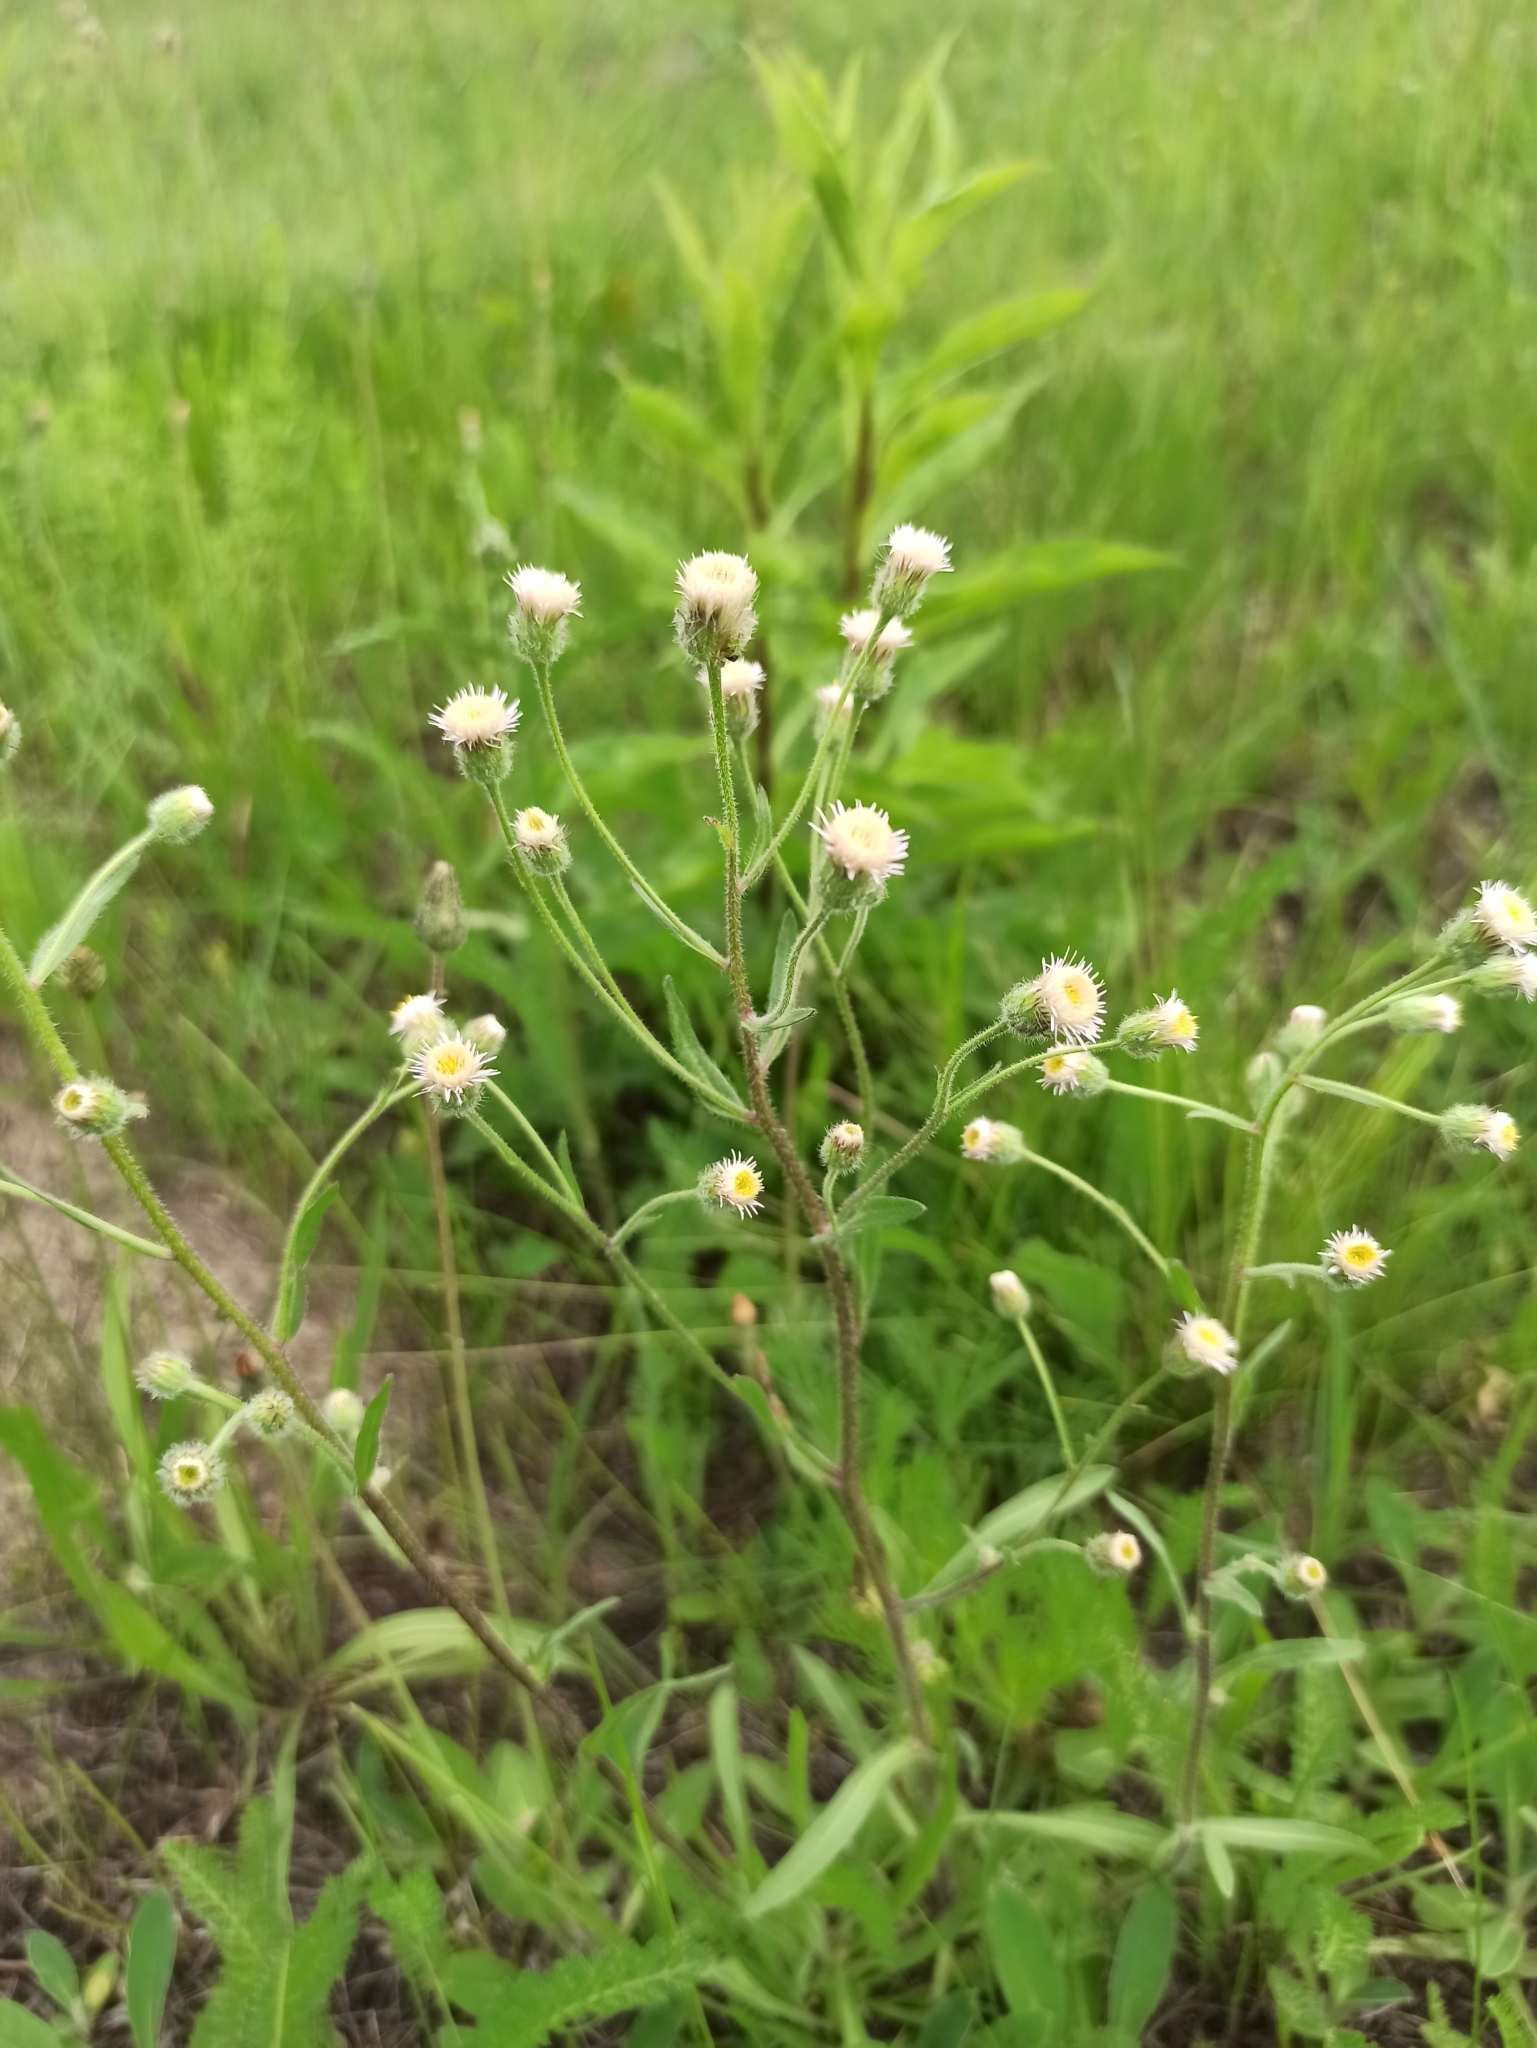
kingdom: Plantae
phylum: Tracheophyta
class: Magnoliopsida
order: Asterales
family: Asteraceae
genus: Erigeron
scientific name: Erigeron acris
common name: Blue fleabane
